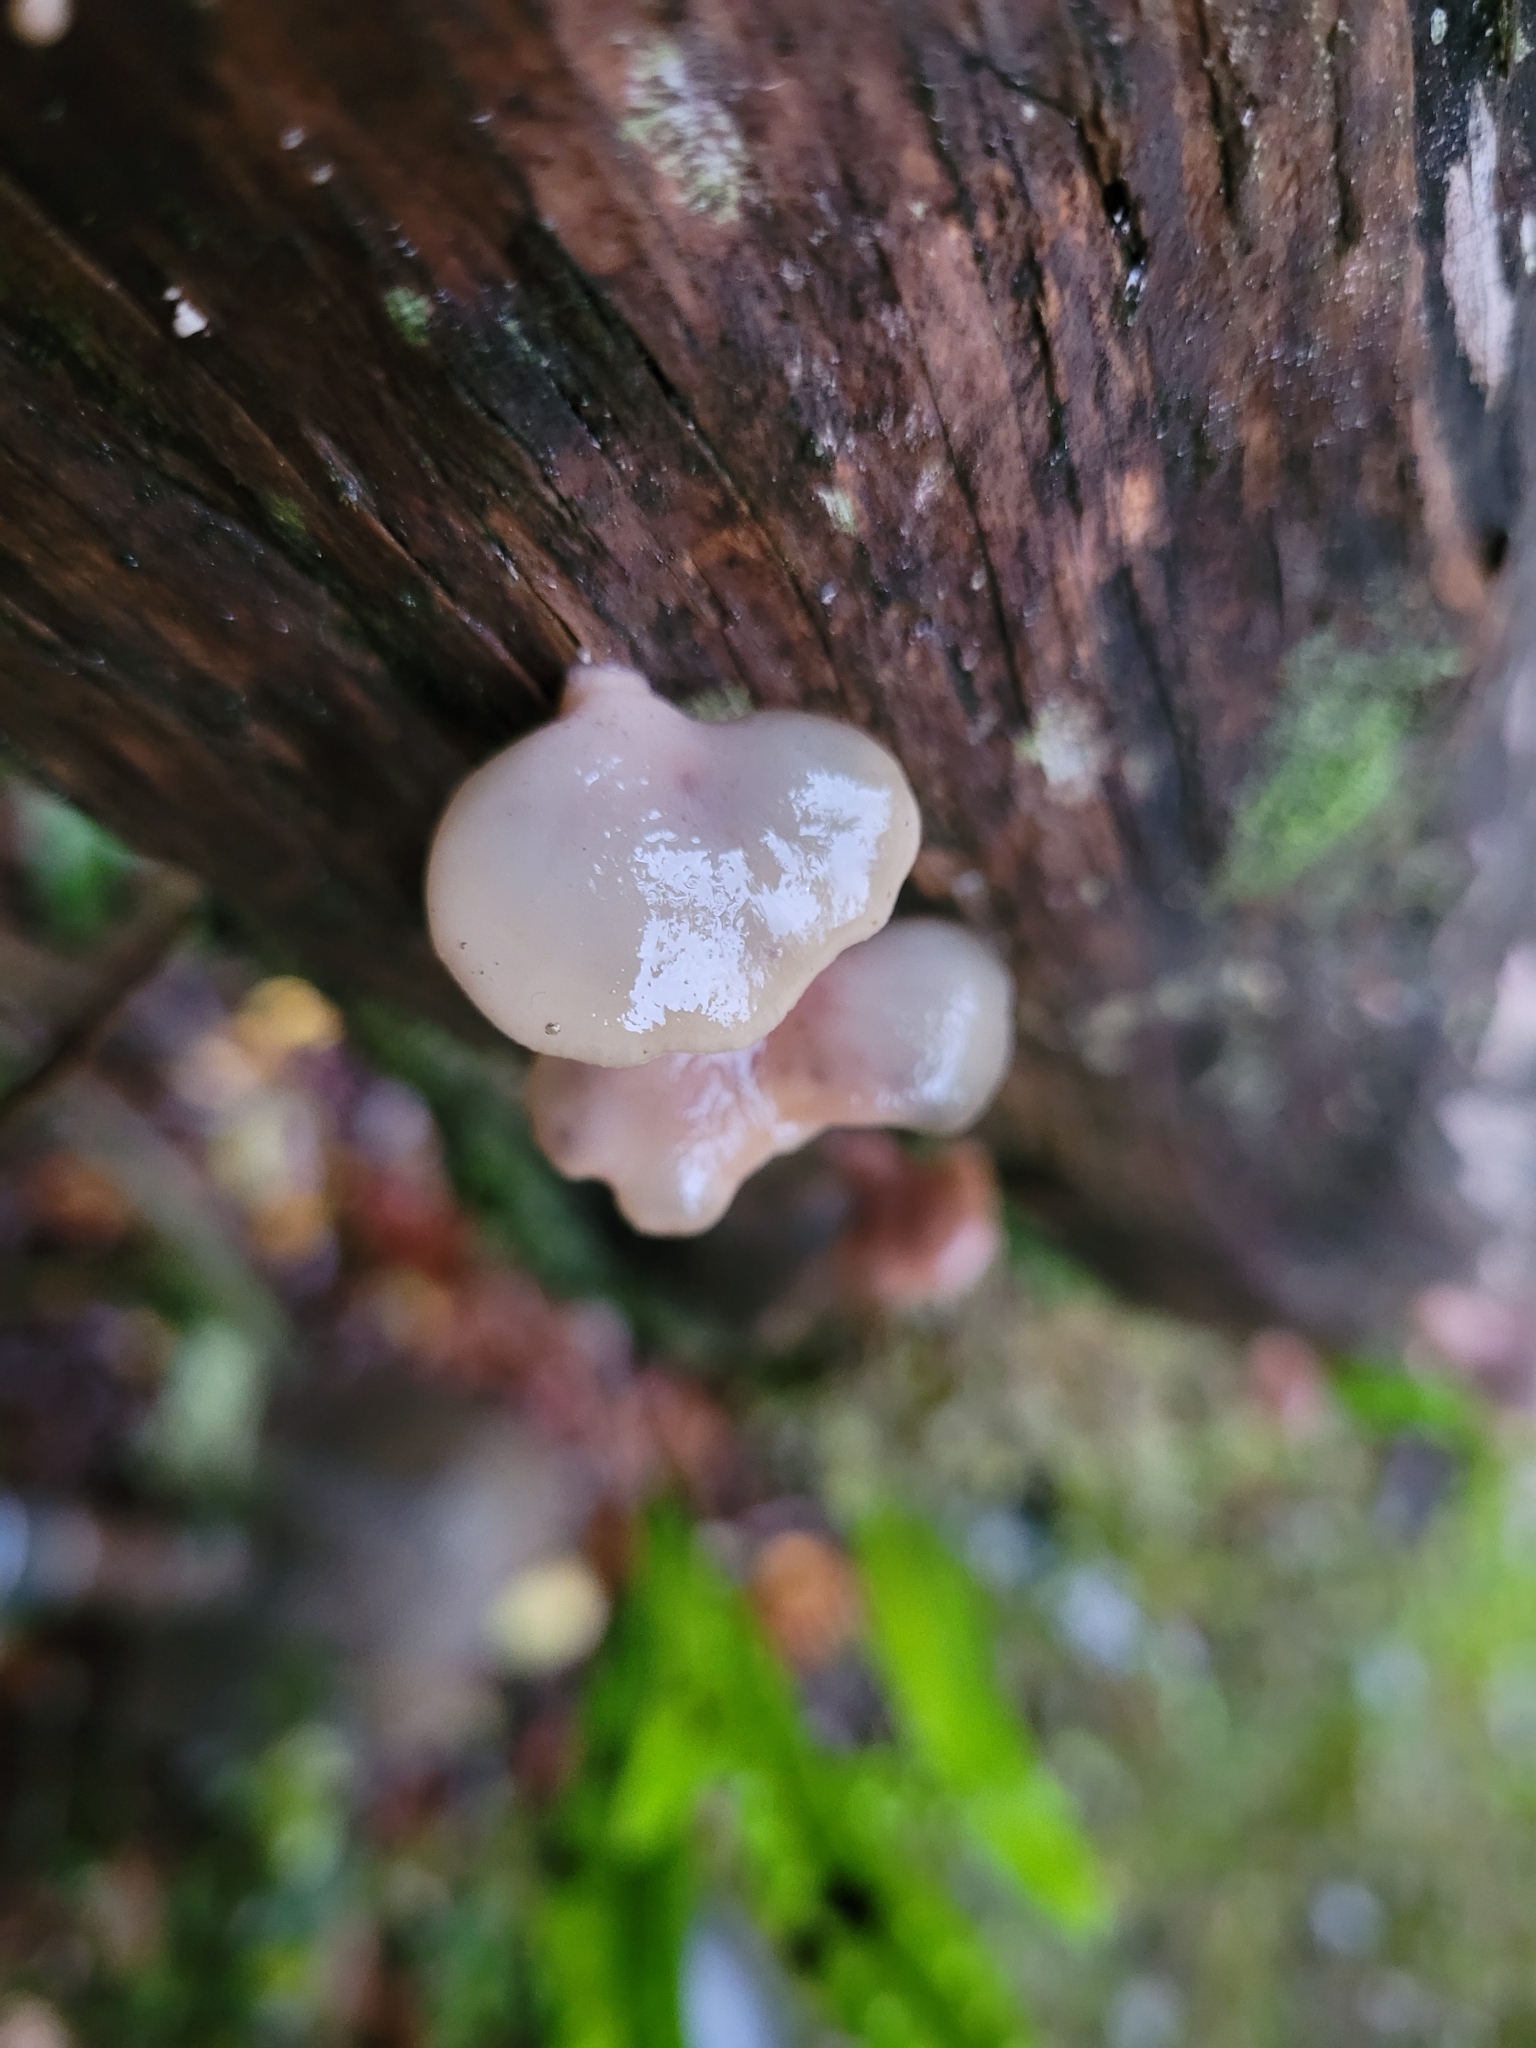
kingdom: Fungi
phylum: Basidiomycota
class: Agaricomycetes
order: Agaricales
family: Mycenaceae
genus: Panellus
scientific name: Panellus longinquus
